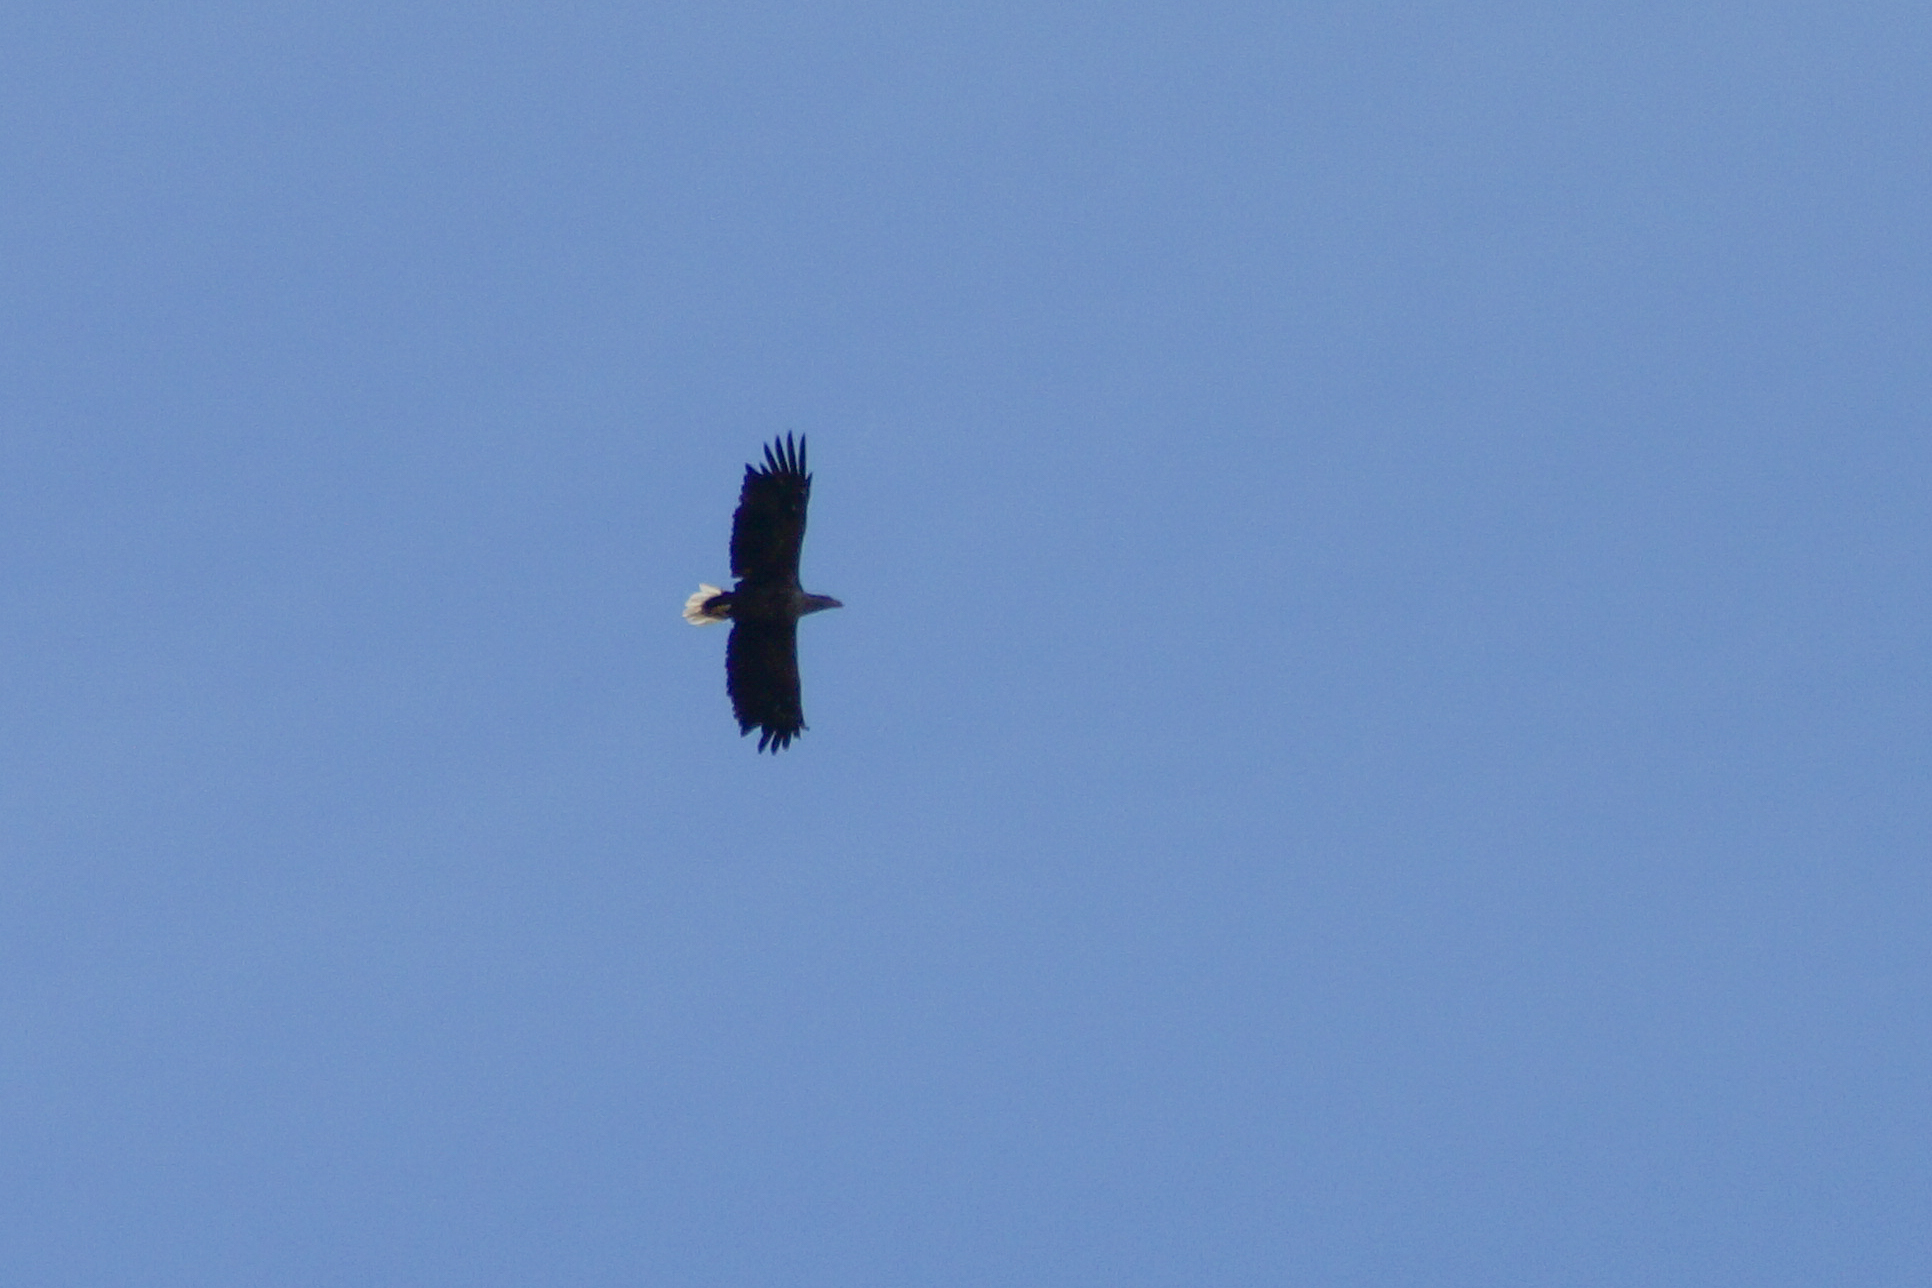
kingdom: Animalia
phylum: Chordata
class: Aves
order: Accipitriformes
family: Accipitridae
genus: Haliaeetus
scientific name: Haliaeetus albicilla
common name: White-tailed eagle
